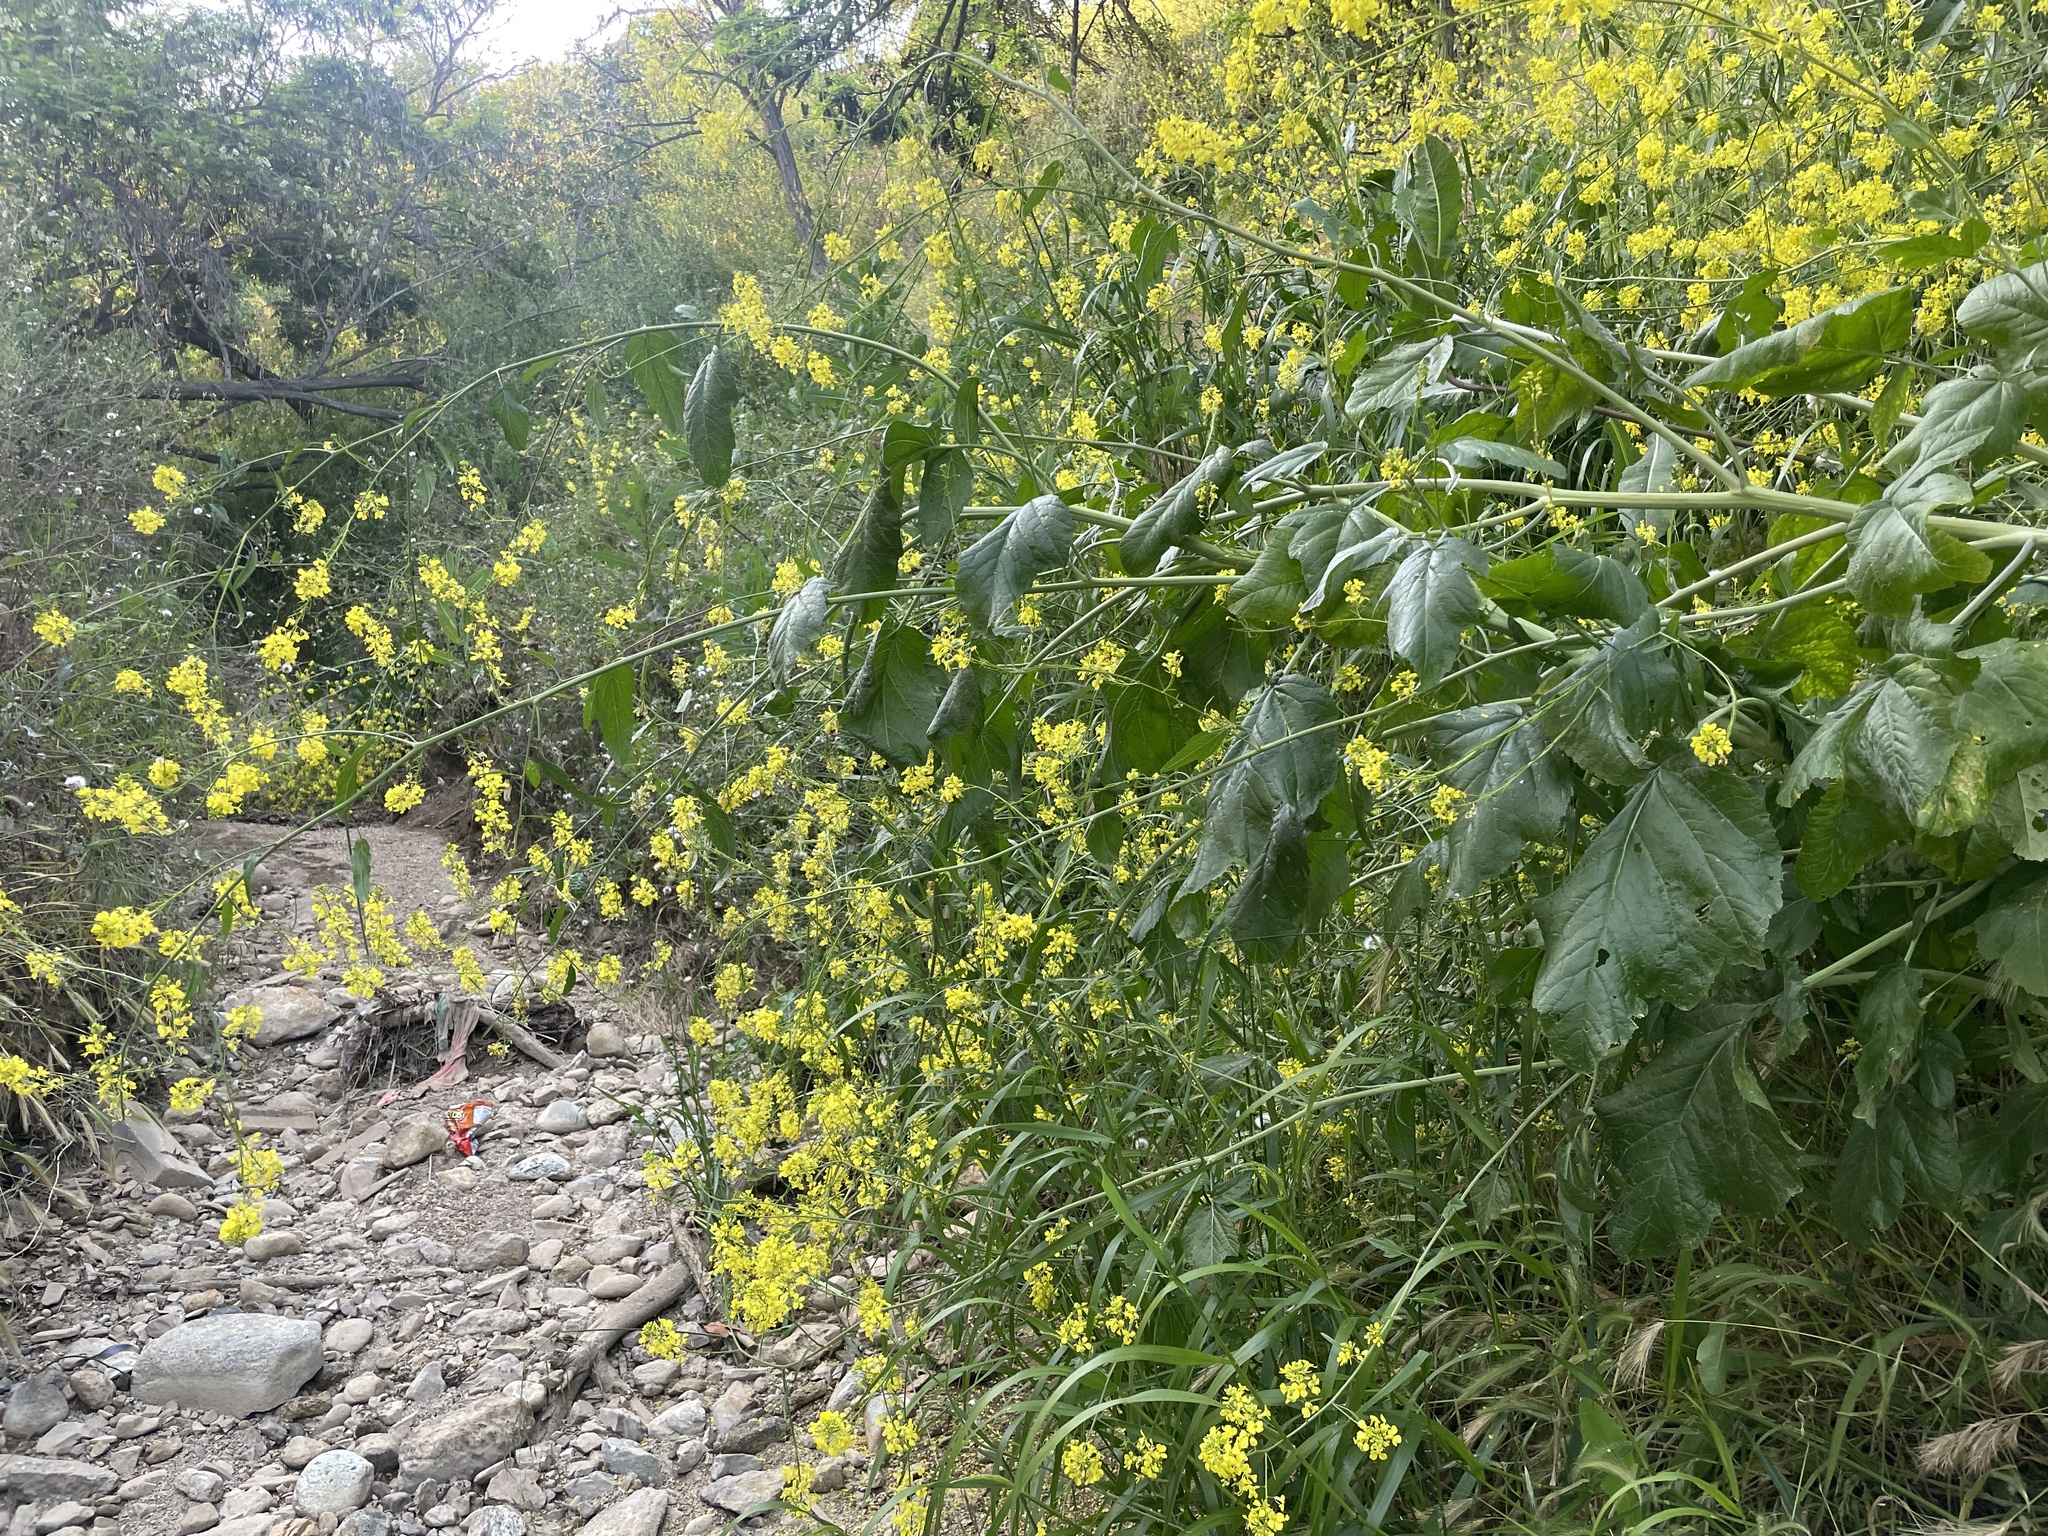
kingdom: Plantae
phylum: Tracheophyta
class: Magnoliopsida
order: Brassicales
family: Brassicaceae
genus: Brassica
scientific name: Brassica nigra
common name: Black mustard
